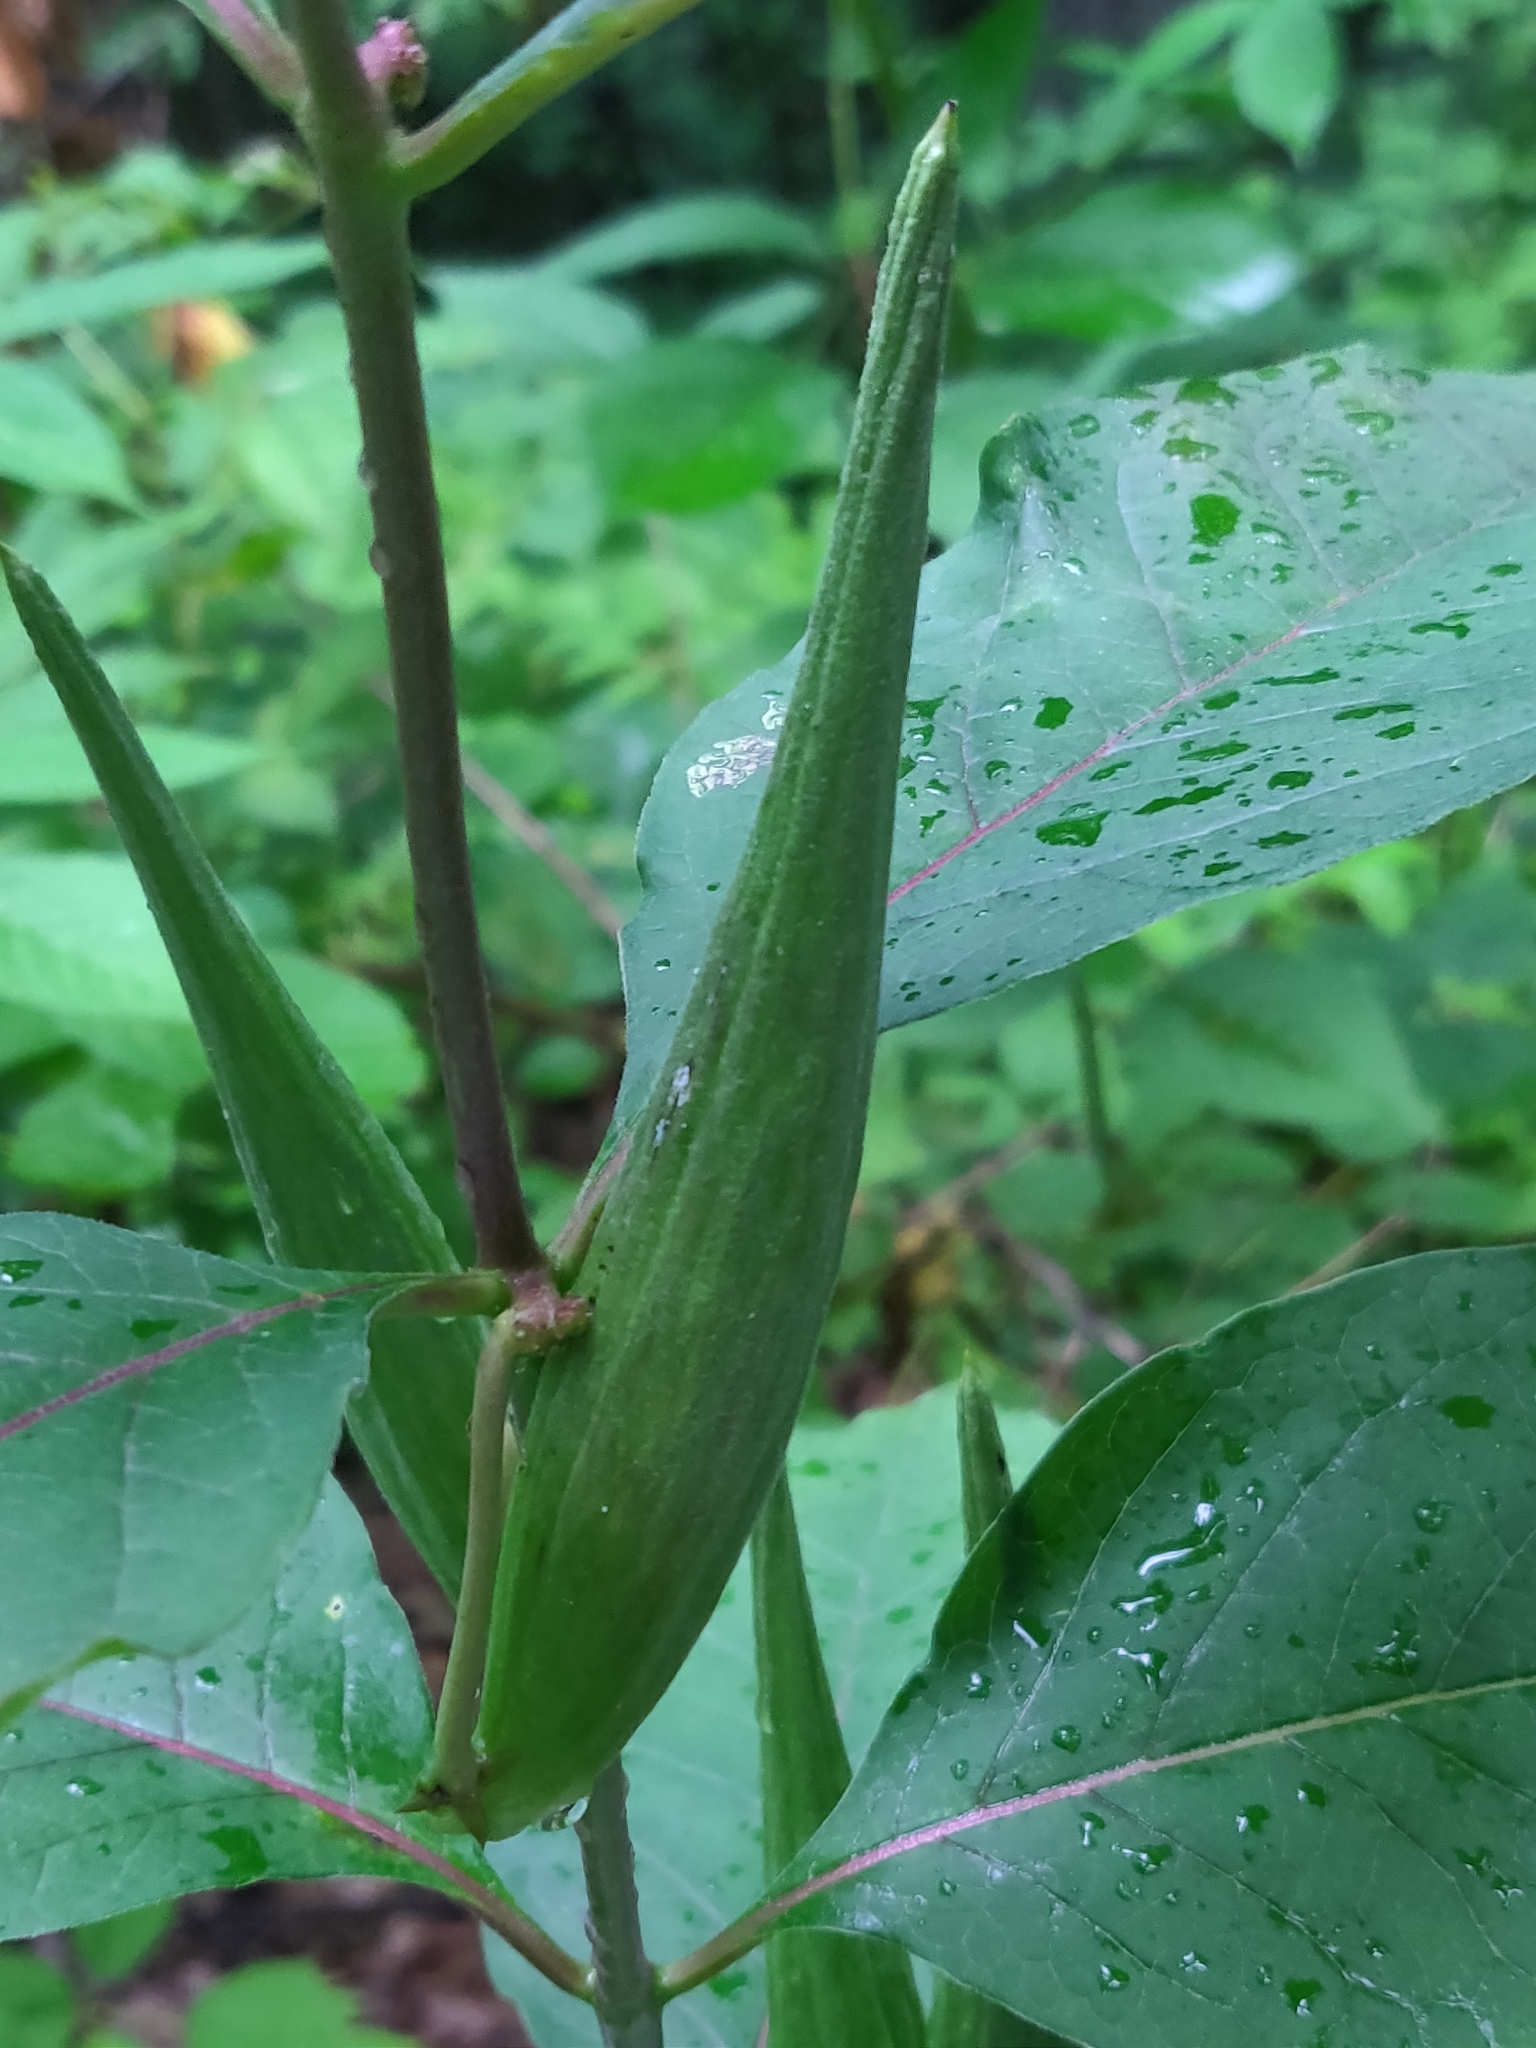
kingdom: Plantae
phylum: Tracheophyta
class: Magnoliopsida
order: Gentianales
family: Apocynaceae
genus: Asclepias
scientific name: Asclepias exaltata
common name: Poke milkweed
